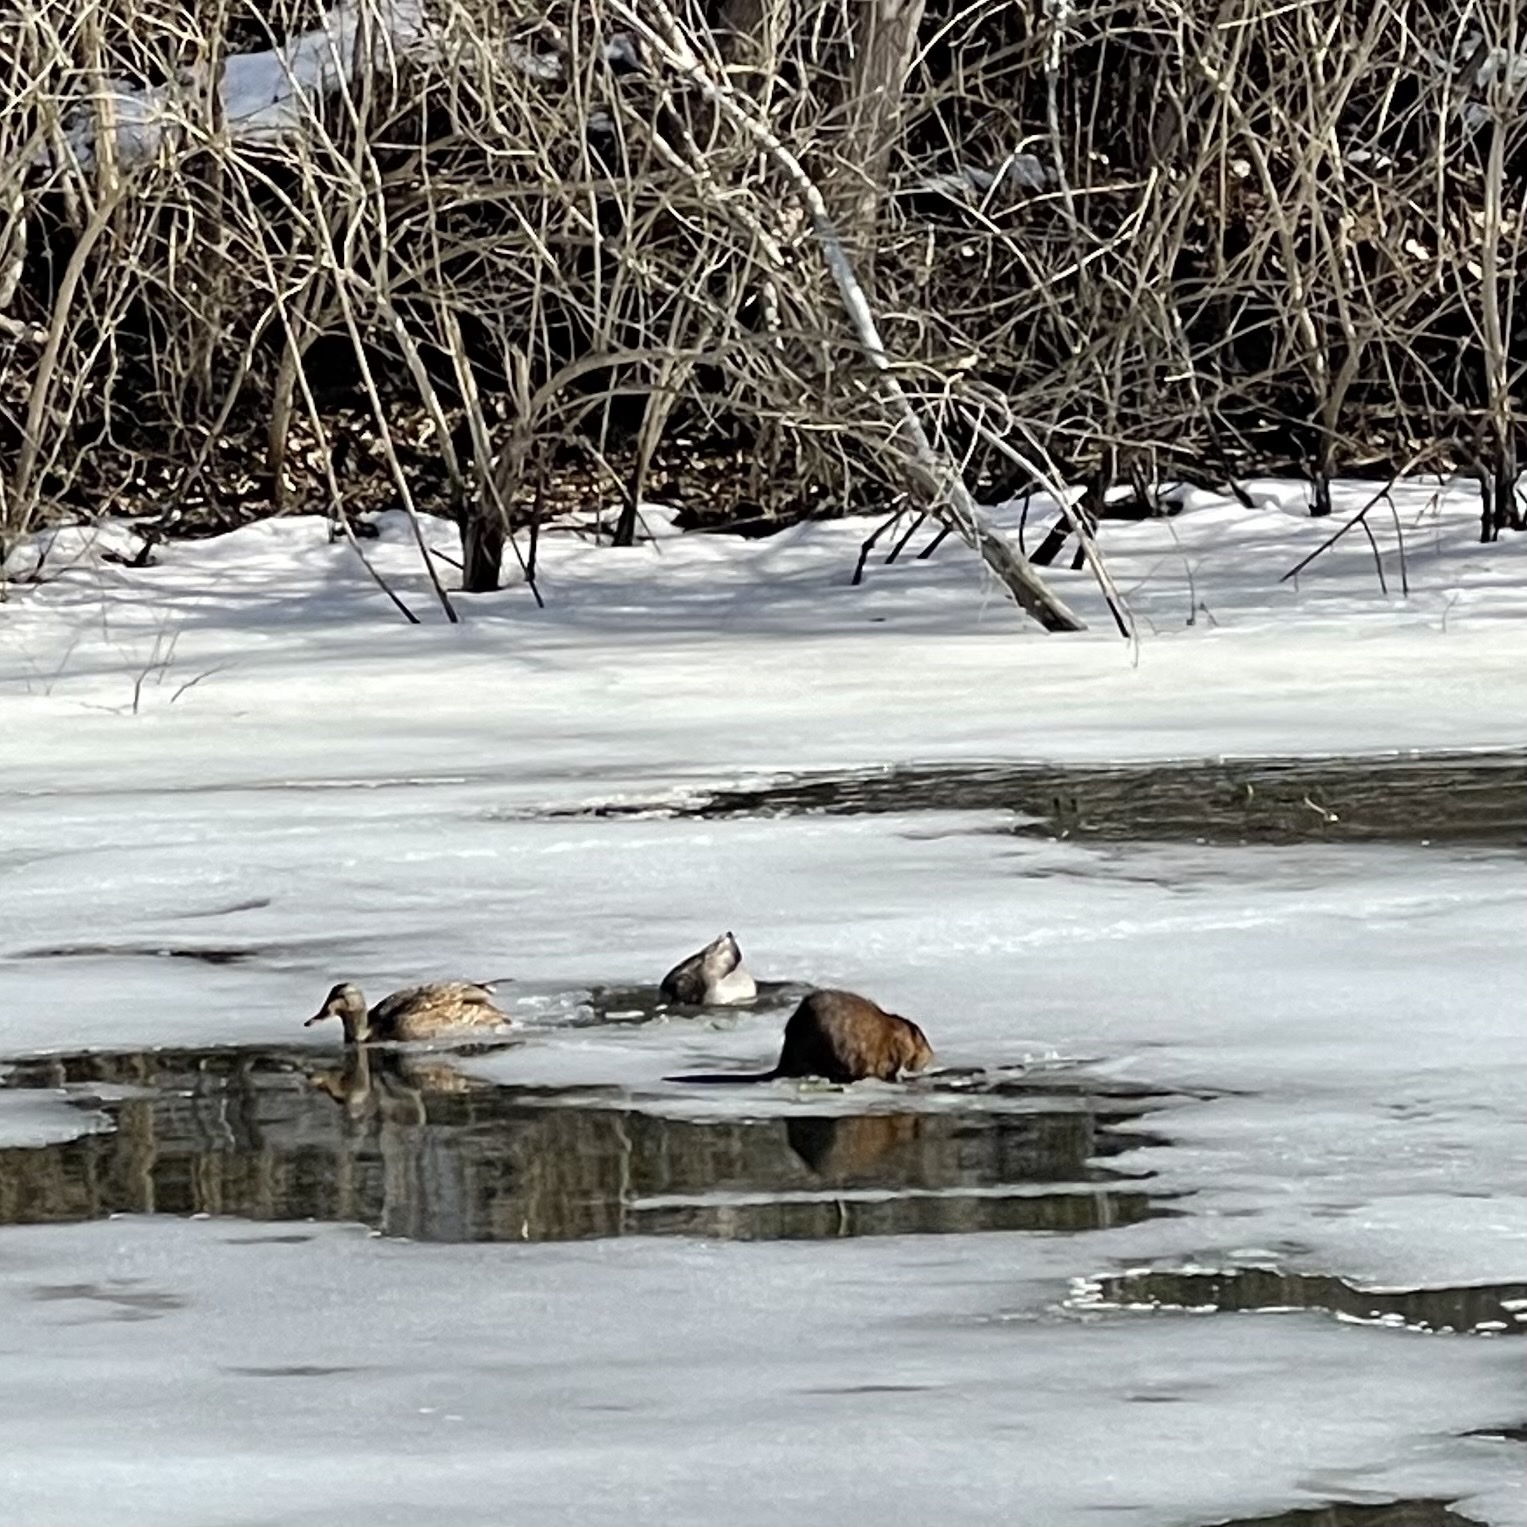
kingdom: Animalia
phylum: Chordata
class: Mammalia
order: Rodentia
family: Cricetidae
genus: Ondatra
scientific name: Ondatra zibethicus
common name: Muskrat
